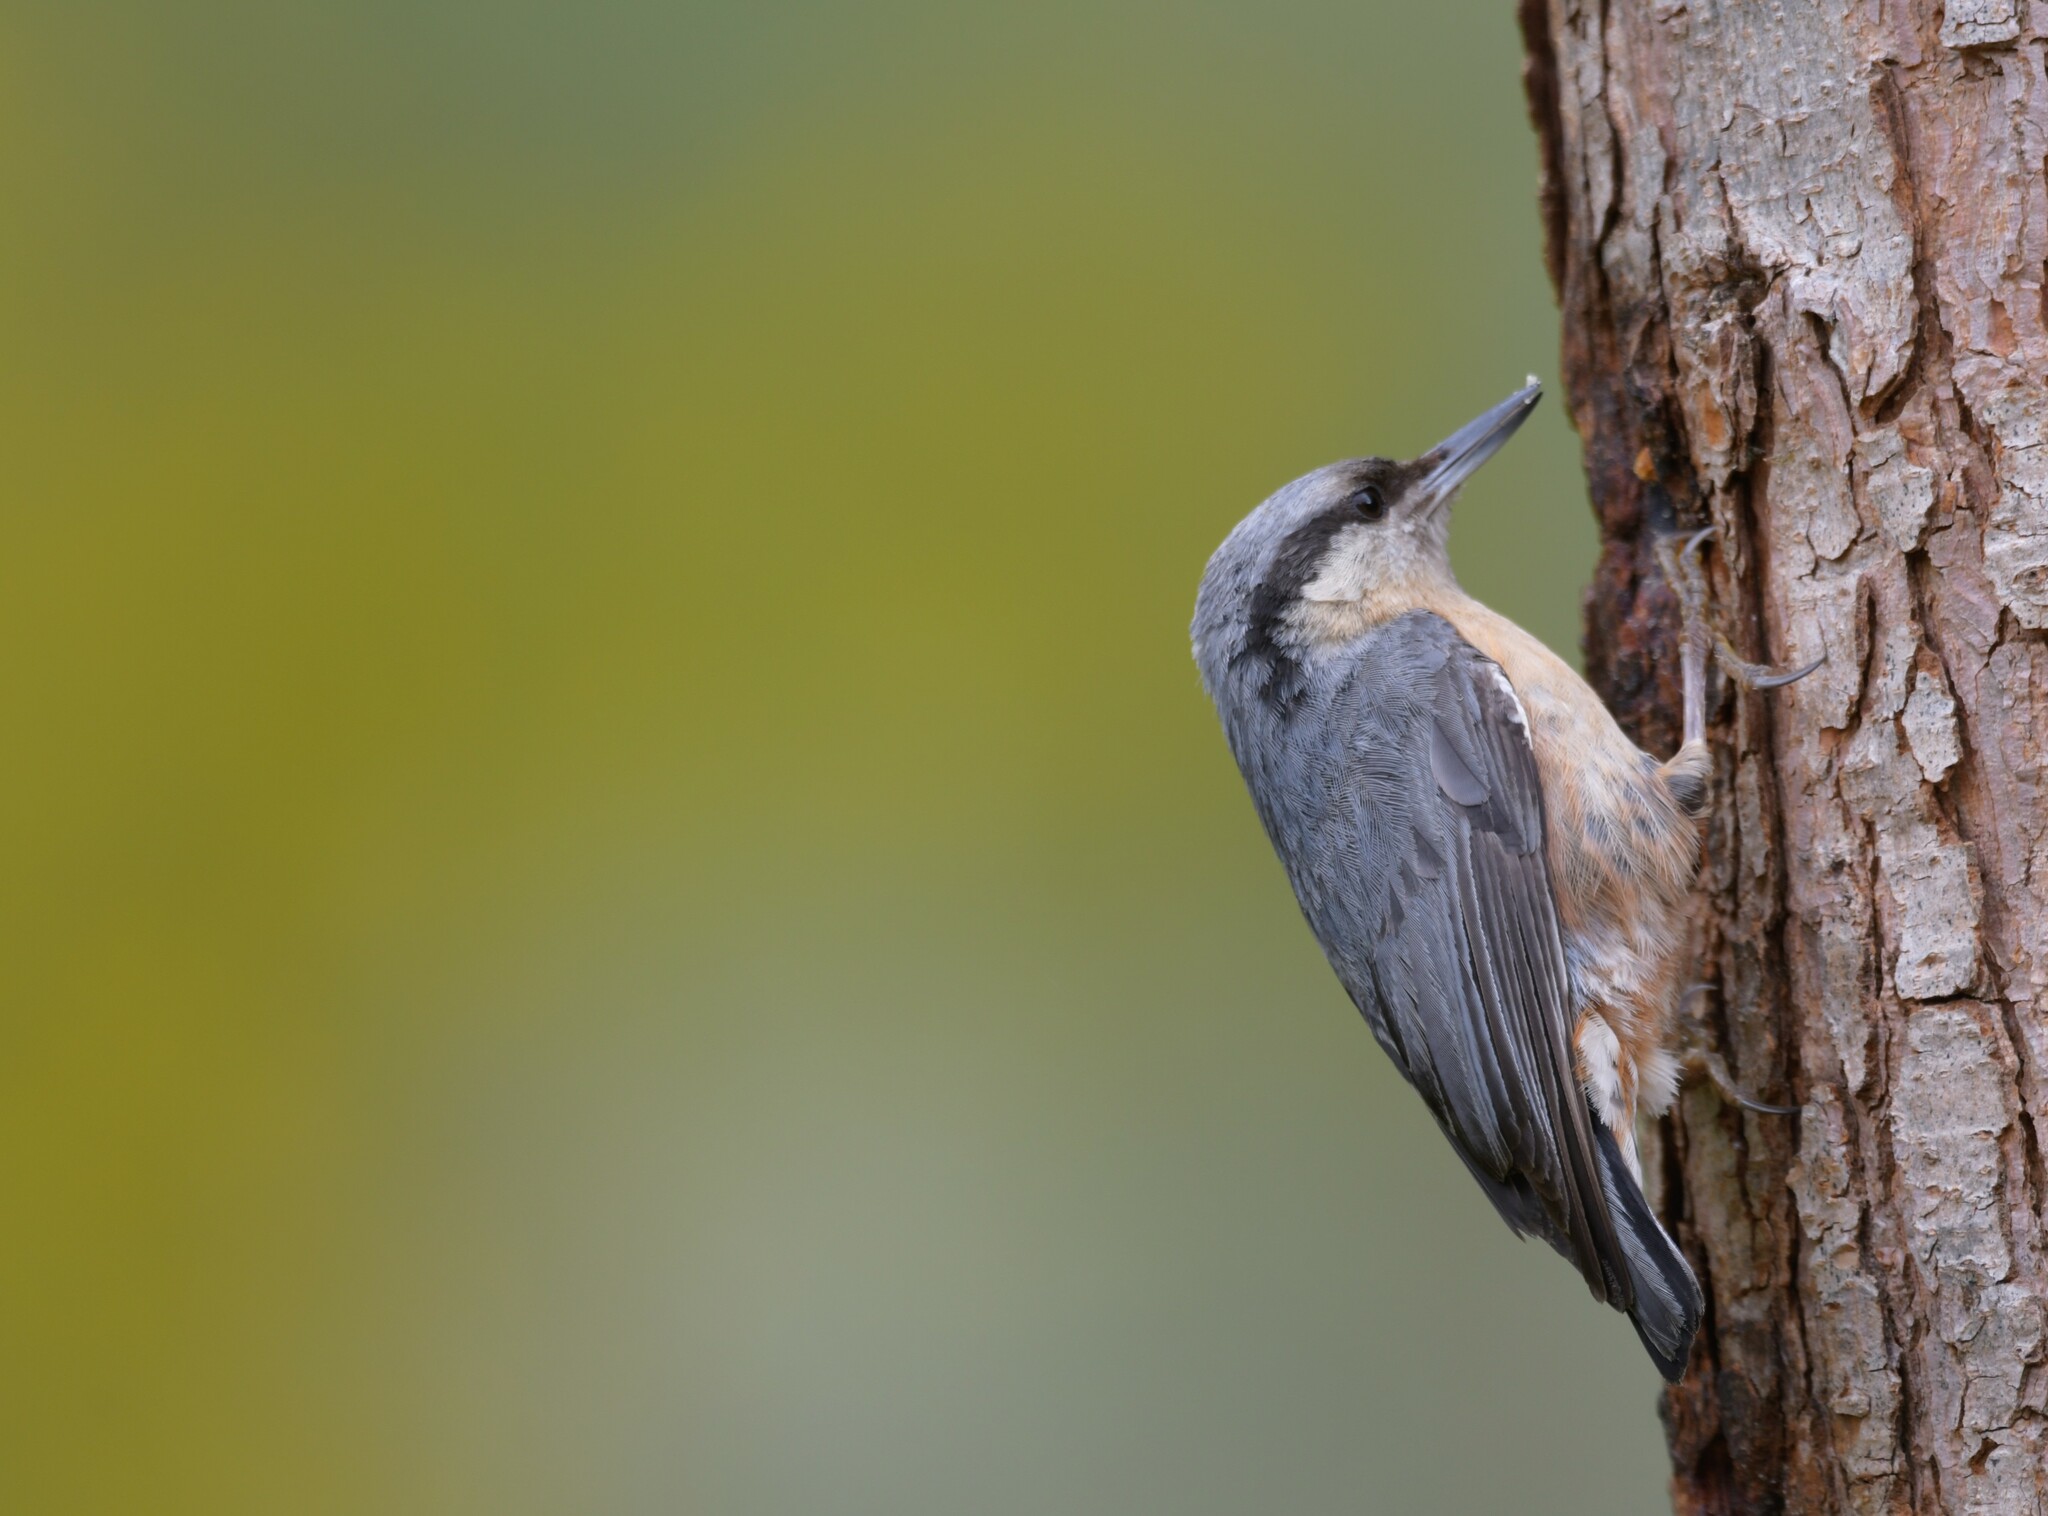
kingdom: Animalia
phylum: Chordata
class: Aves
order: Passeriformes
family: Sittidae
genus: Sitta
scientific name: Sitta europaea
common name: Eurasian nuthatch
